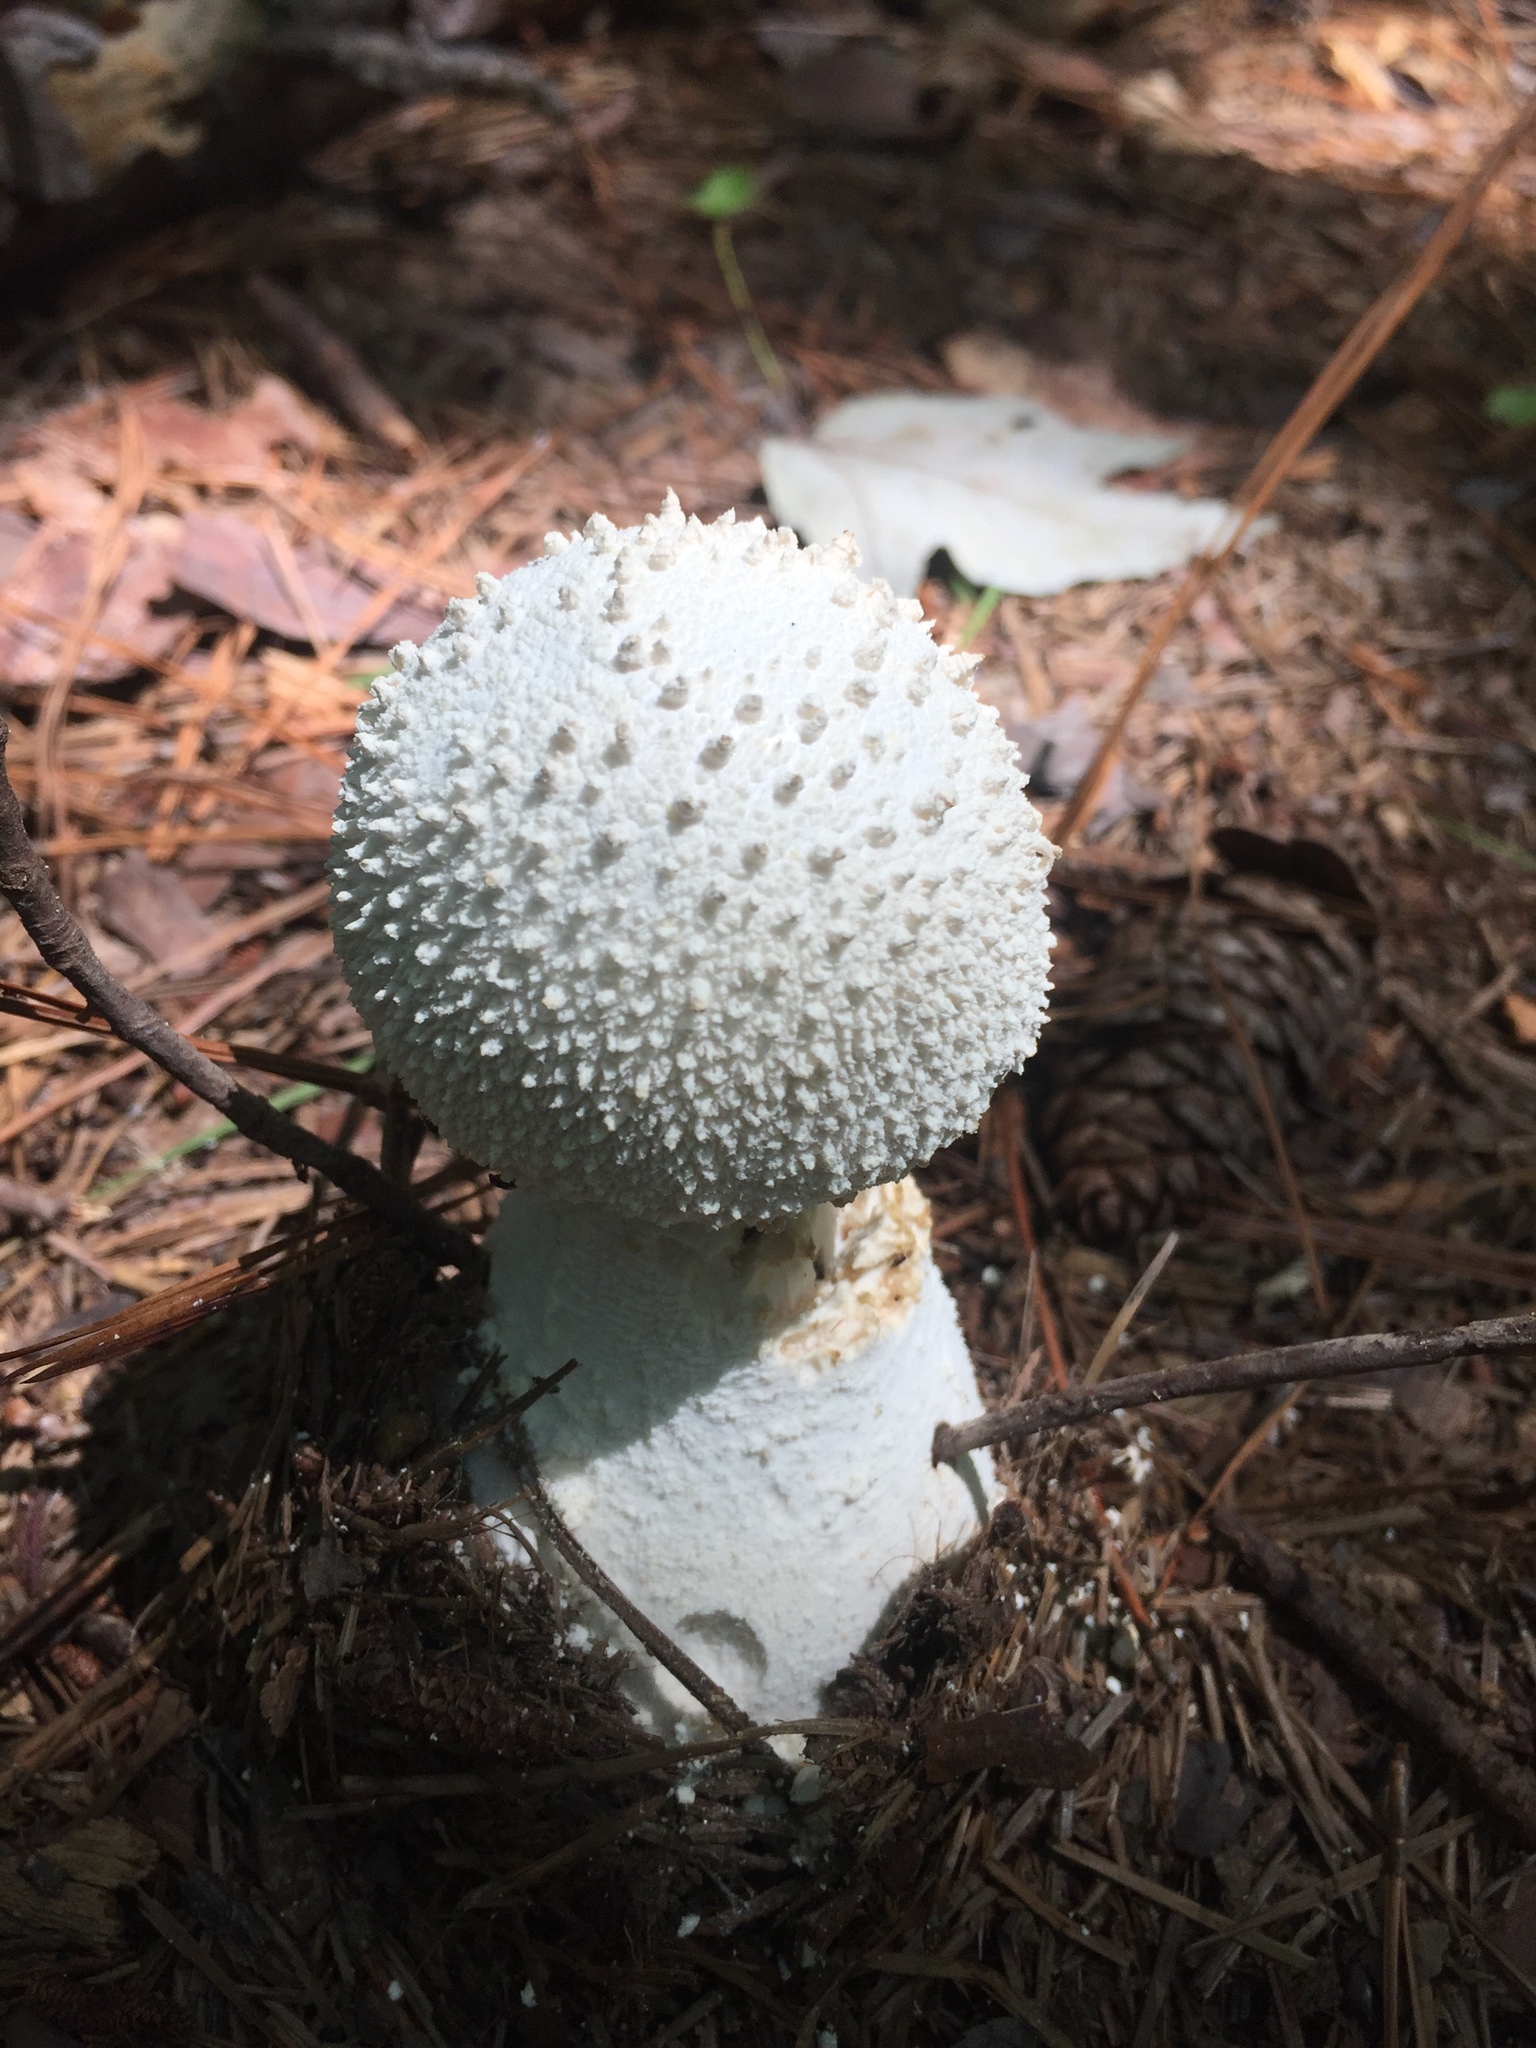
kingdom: Fungi
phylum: Basidiomycota
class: Agaricomycetes
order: Agaricales
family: Lycoperdaceae
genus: Lycoperdon
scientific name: Lycoperdon perlatum
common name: Common puffball
